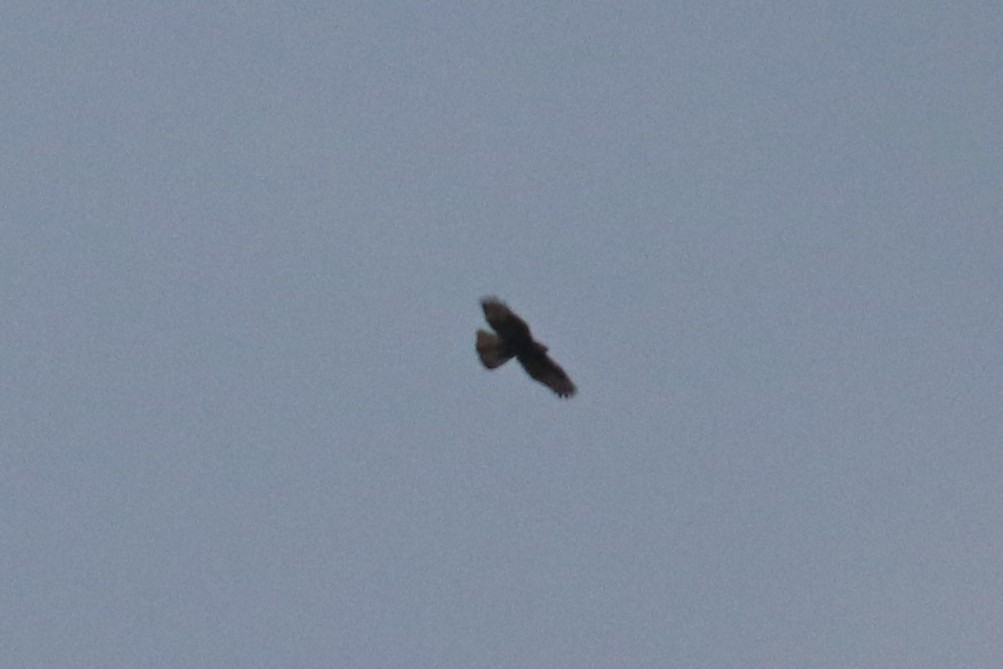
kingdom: Animalia
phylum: Chordata
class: Aves
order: Accipitriformes
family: Accipitridae
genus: Pernis
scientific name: Pernis apivorus
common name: European honey buzzard
